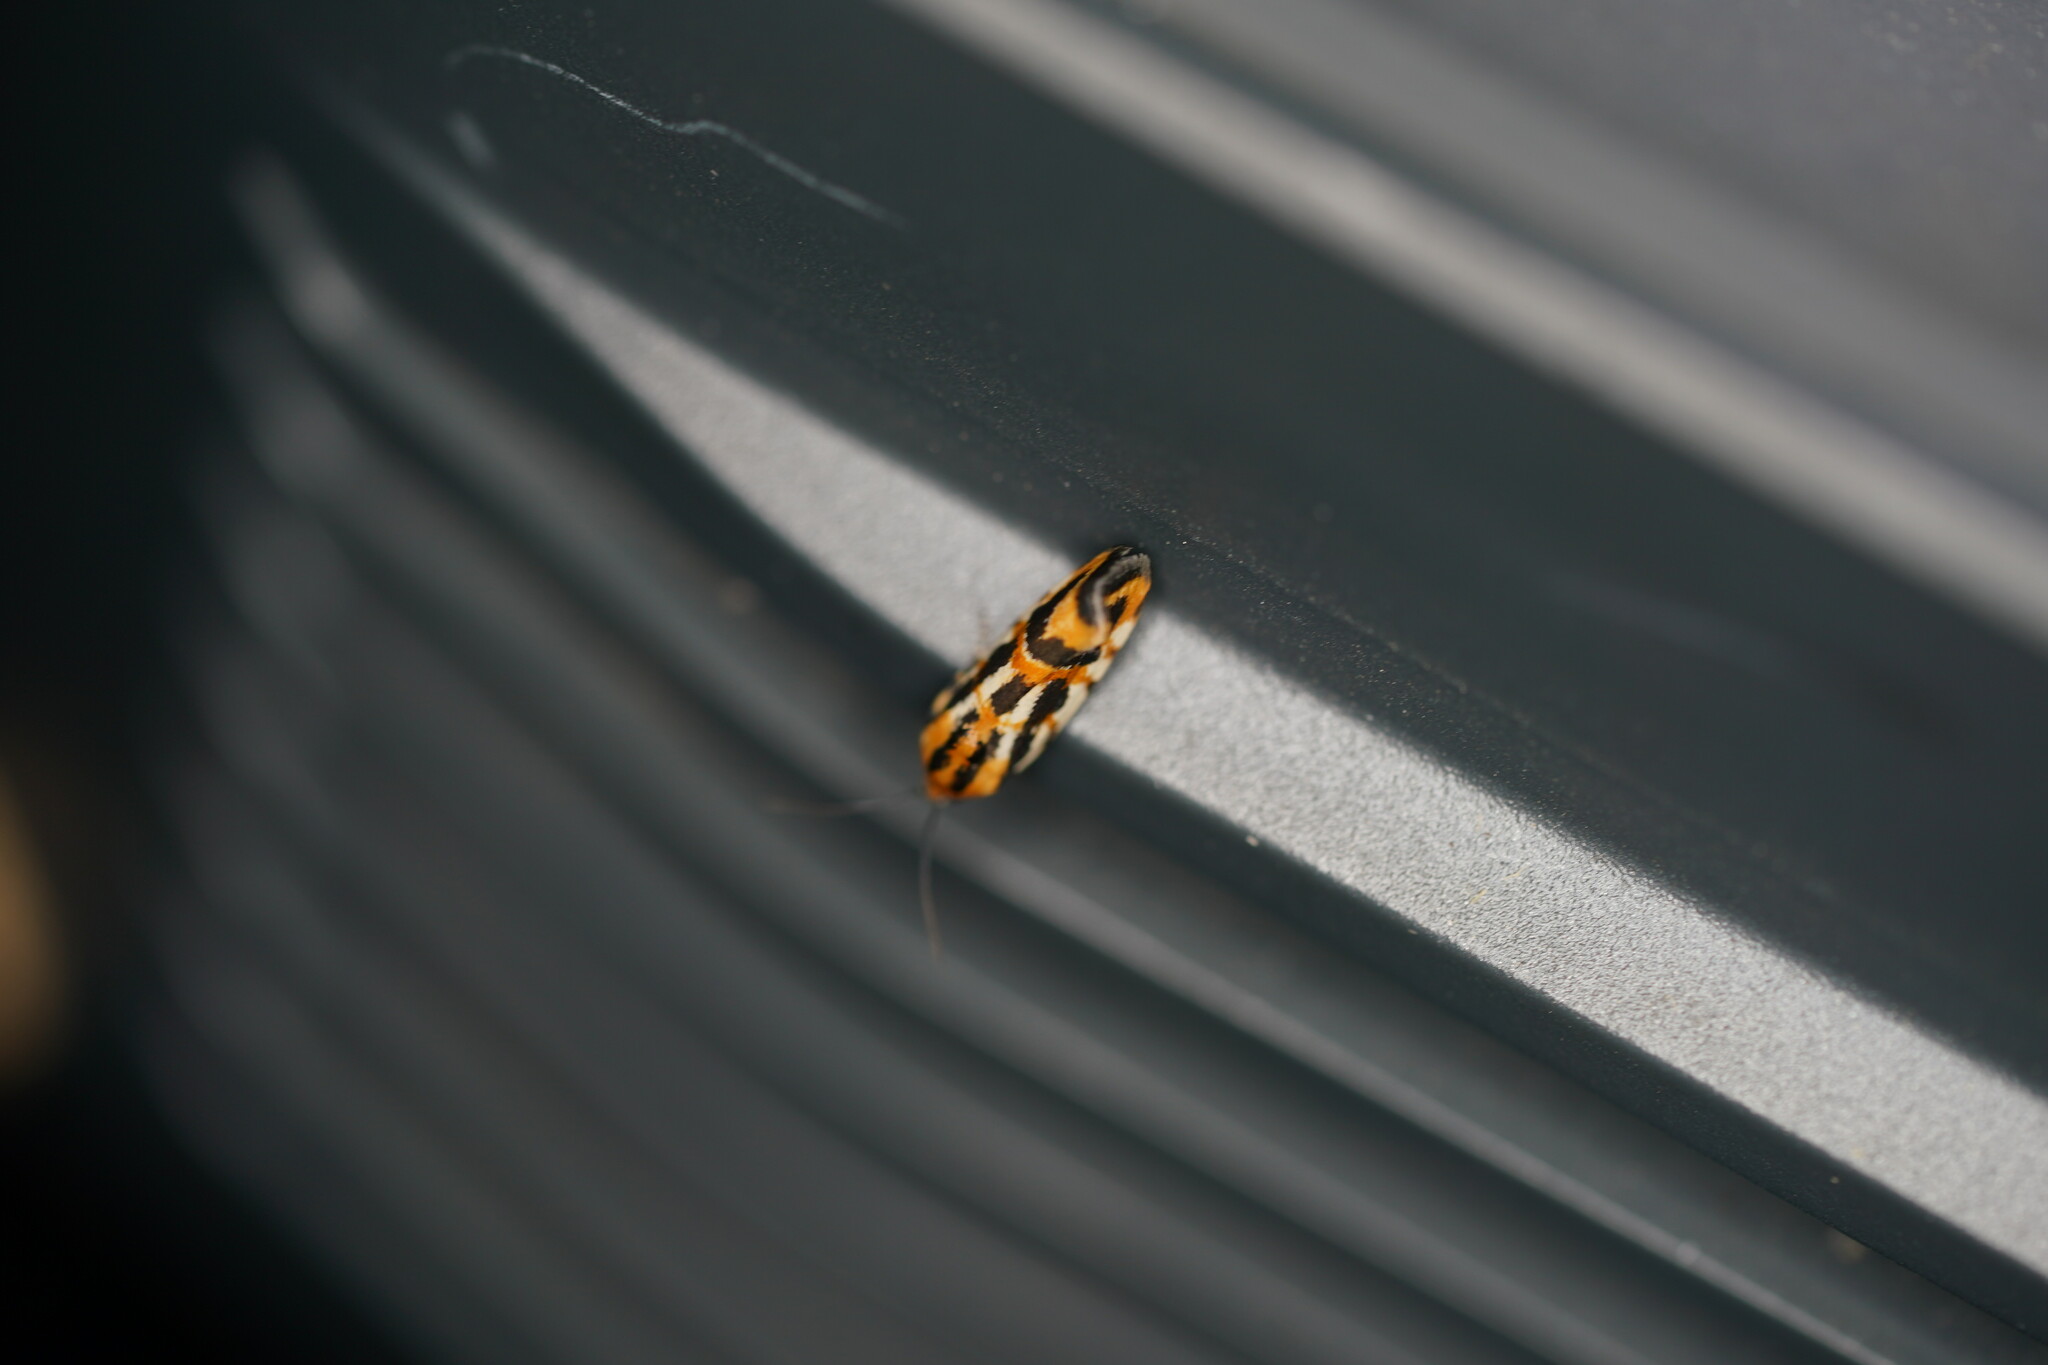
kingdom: Animalia
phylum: Arthropoda
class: Insecta
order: Lepidoptera
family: Noctuidae
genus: Acontia
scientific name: Acontia leo
